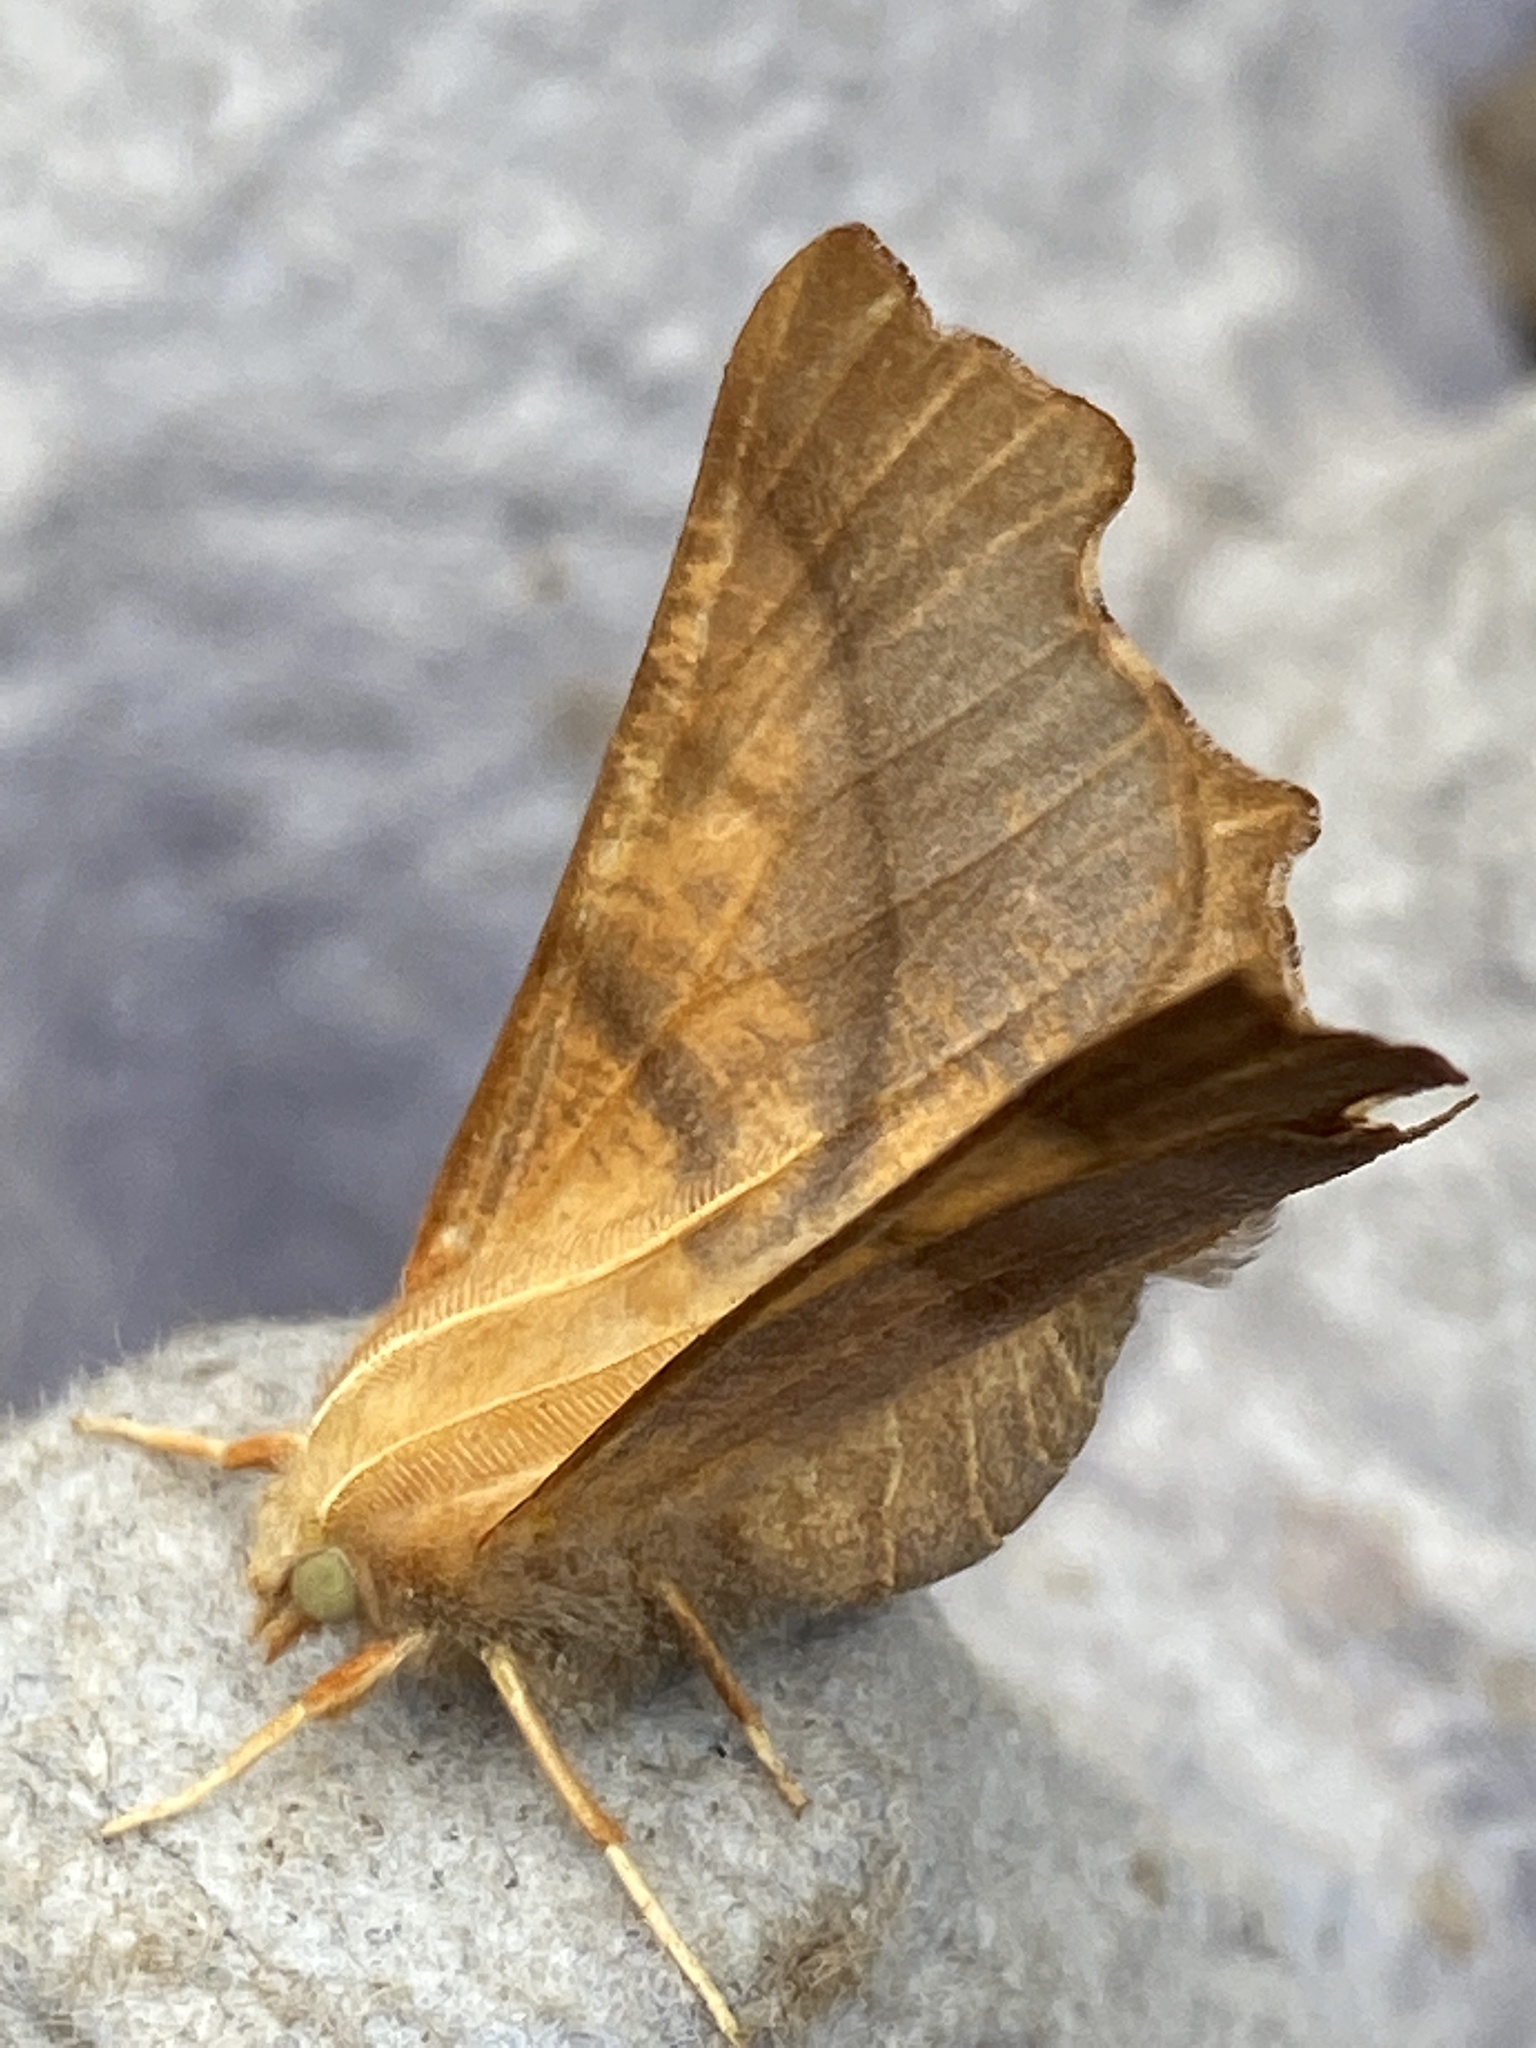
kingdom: Animalia
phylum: Arthropoda
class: Insecta
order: Lepidoptera
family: Geometridae
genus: Ennomos
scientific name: Ennomos fuscantaria
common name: Dusky thorn
